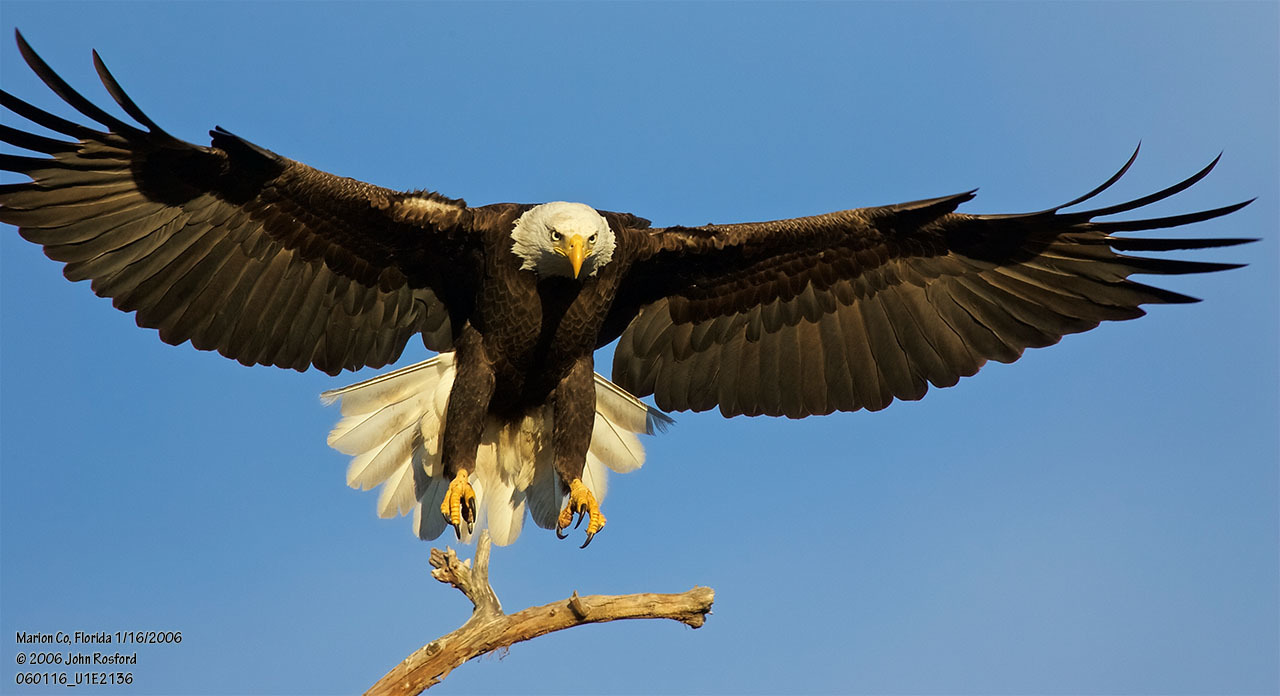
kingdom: Animalia
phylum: Chordata
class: Aves
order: Accipitriformes
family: Accipitridae
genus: Haliaeetus
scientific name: Haliaeetus leucocephalus
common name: Bald eagle
